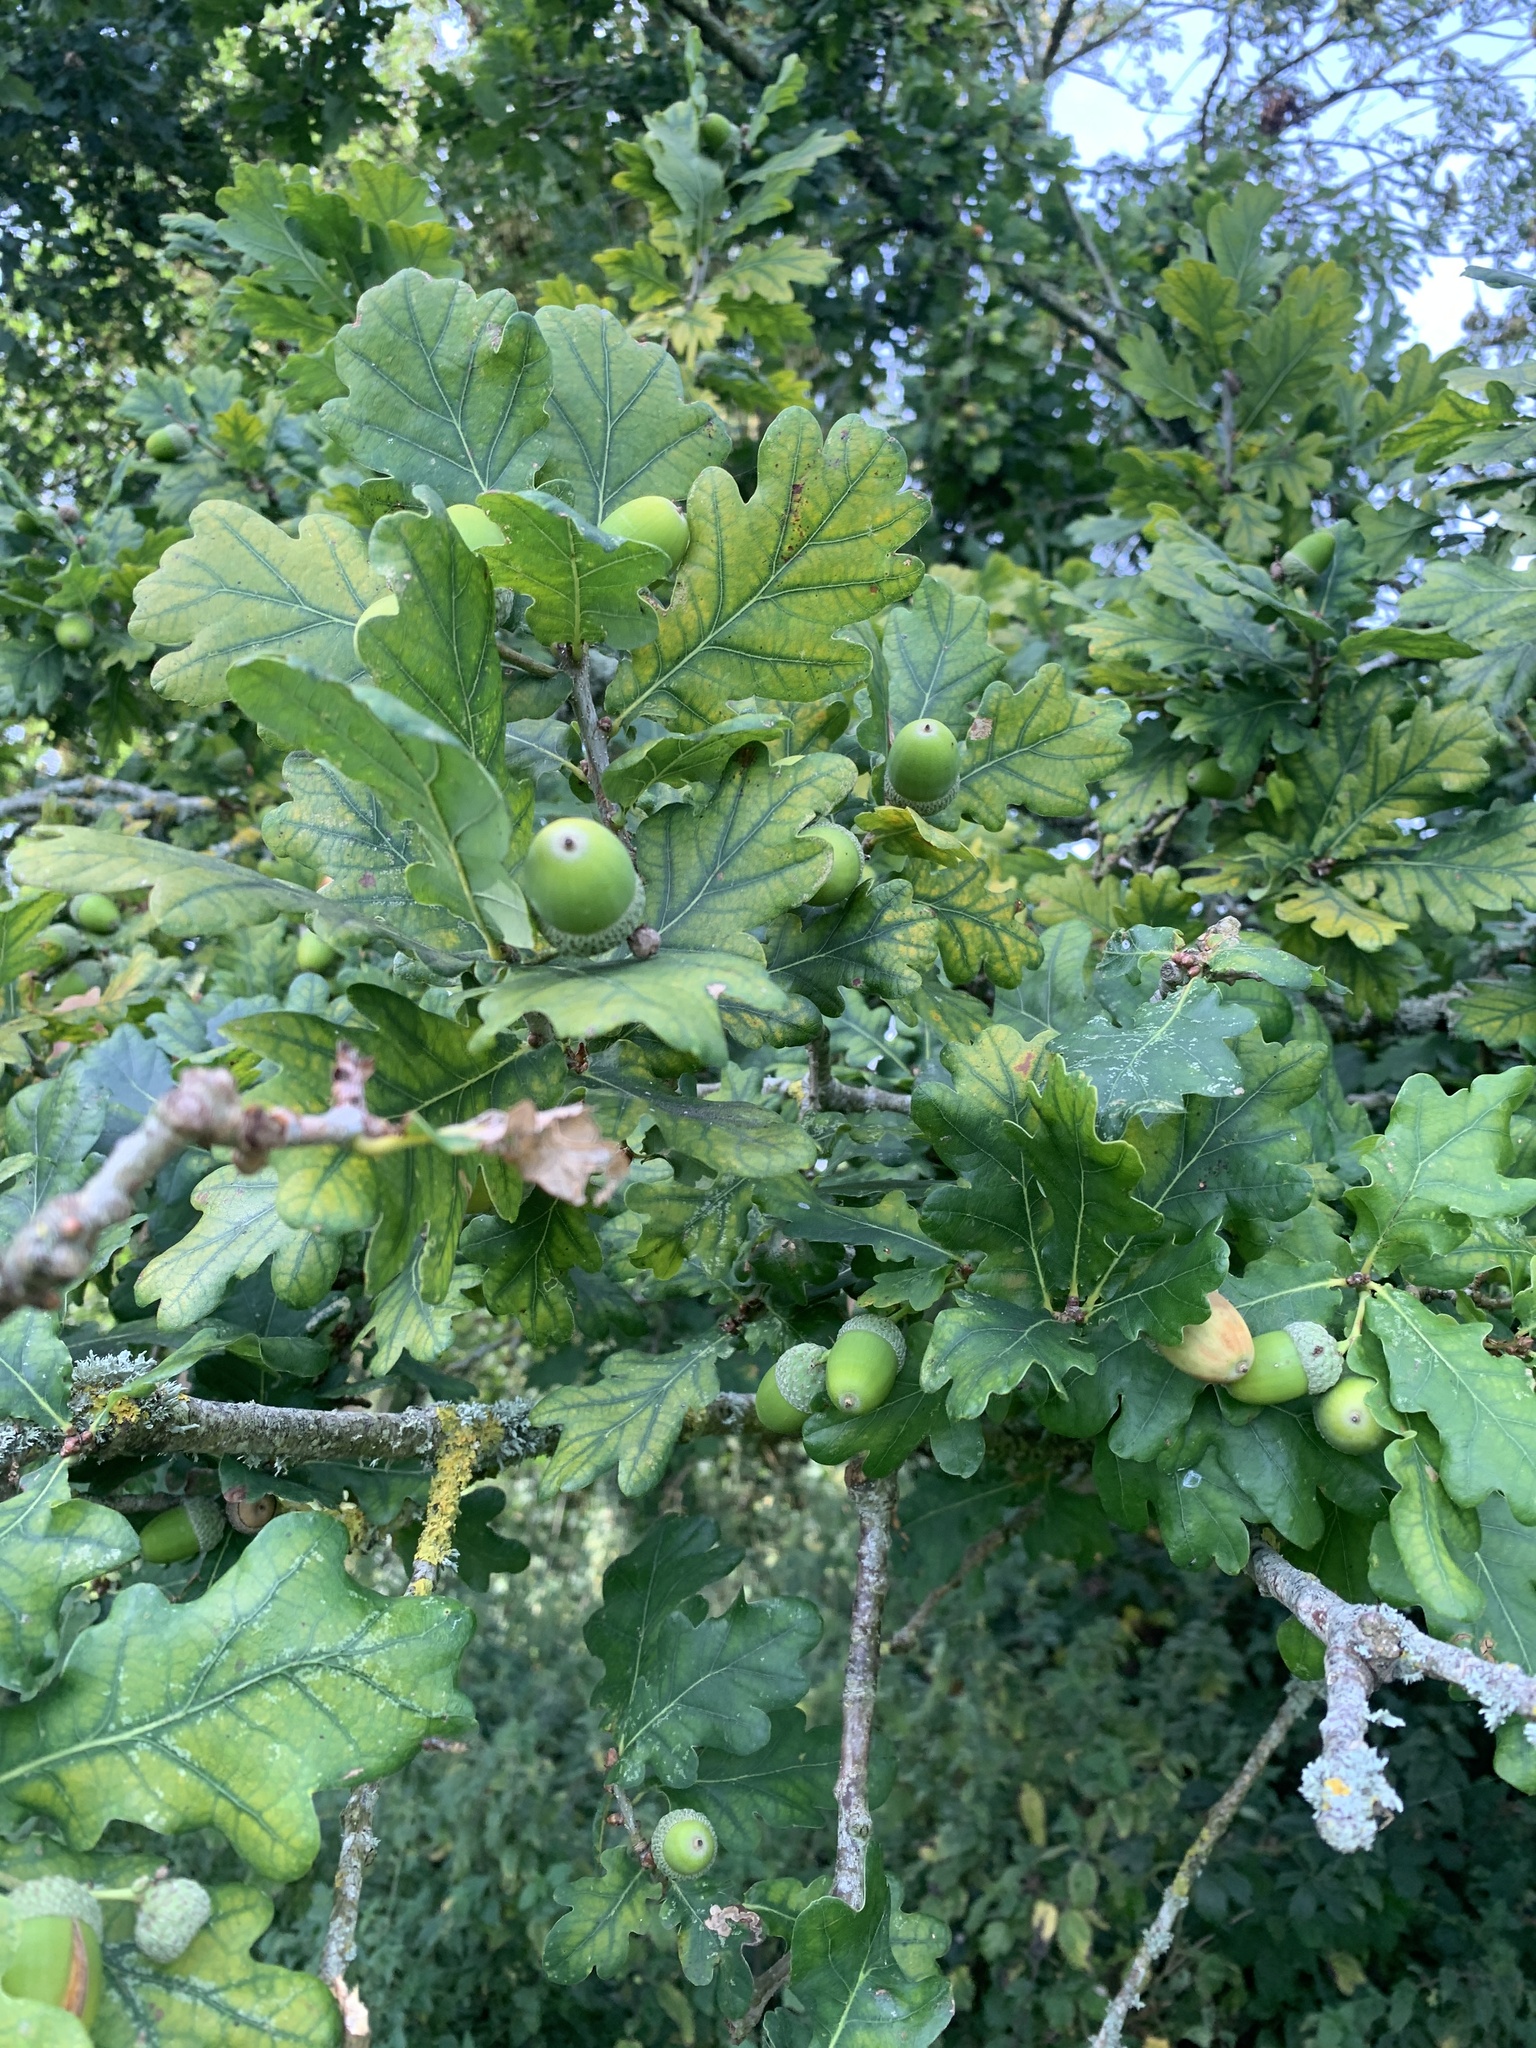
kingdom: Plantae
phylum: Tracheophyta
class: Magnoliopsida
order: Fagales
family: Fagaceae
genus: Quercus
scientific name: Quercus robur
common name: Pedunculate oak
